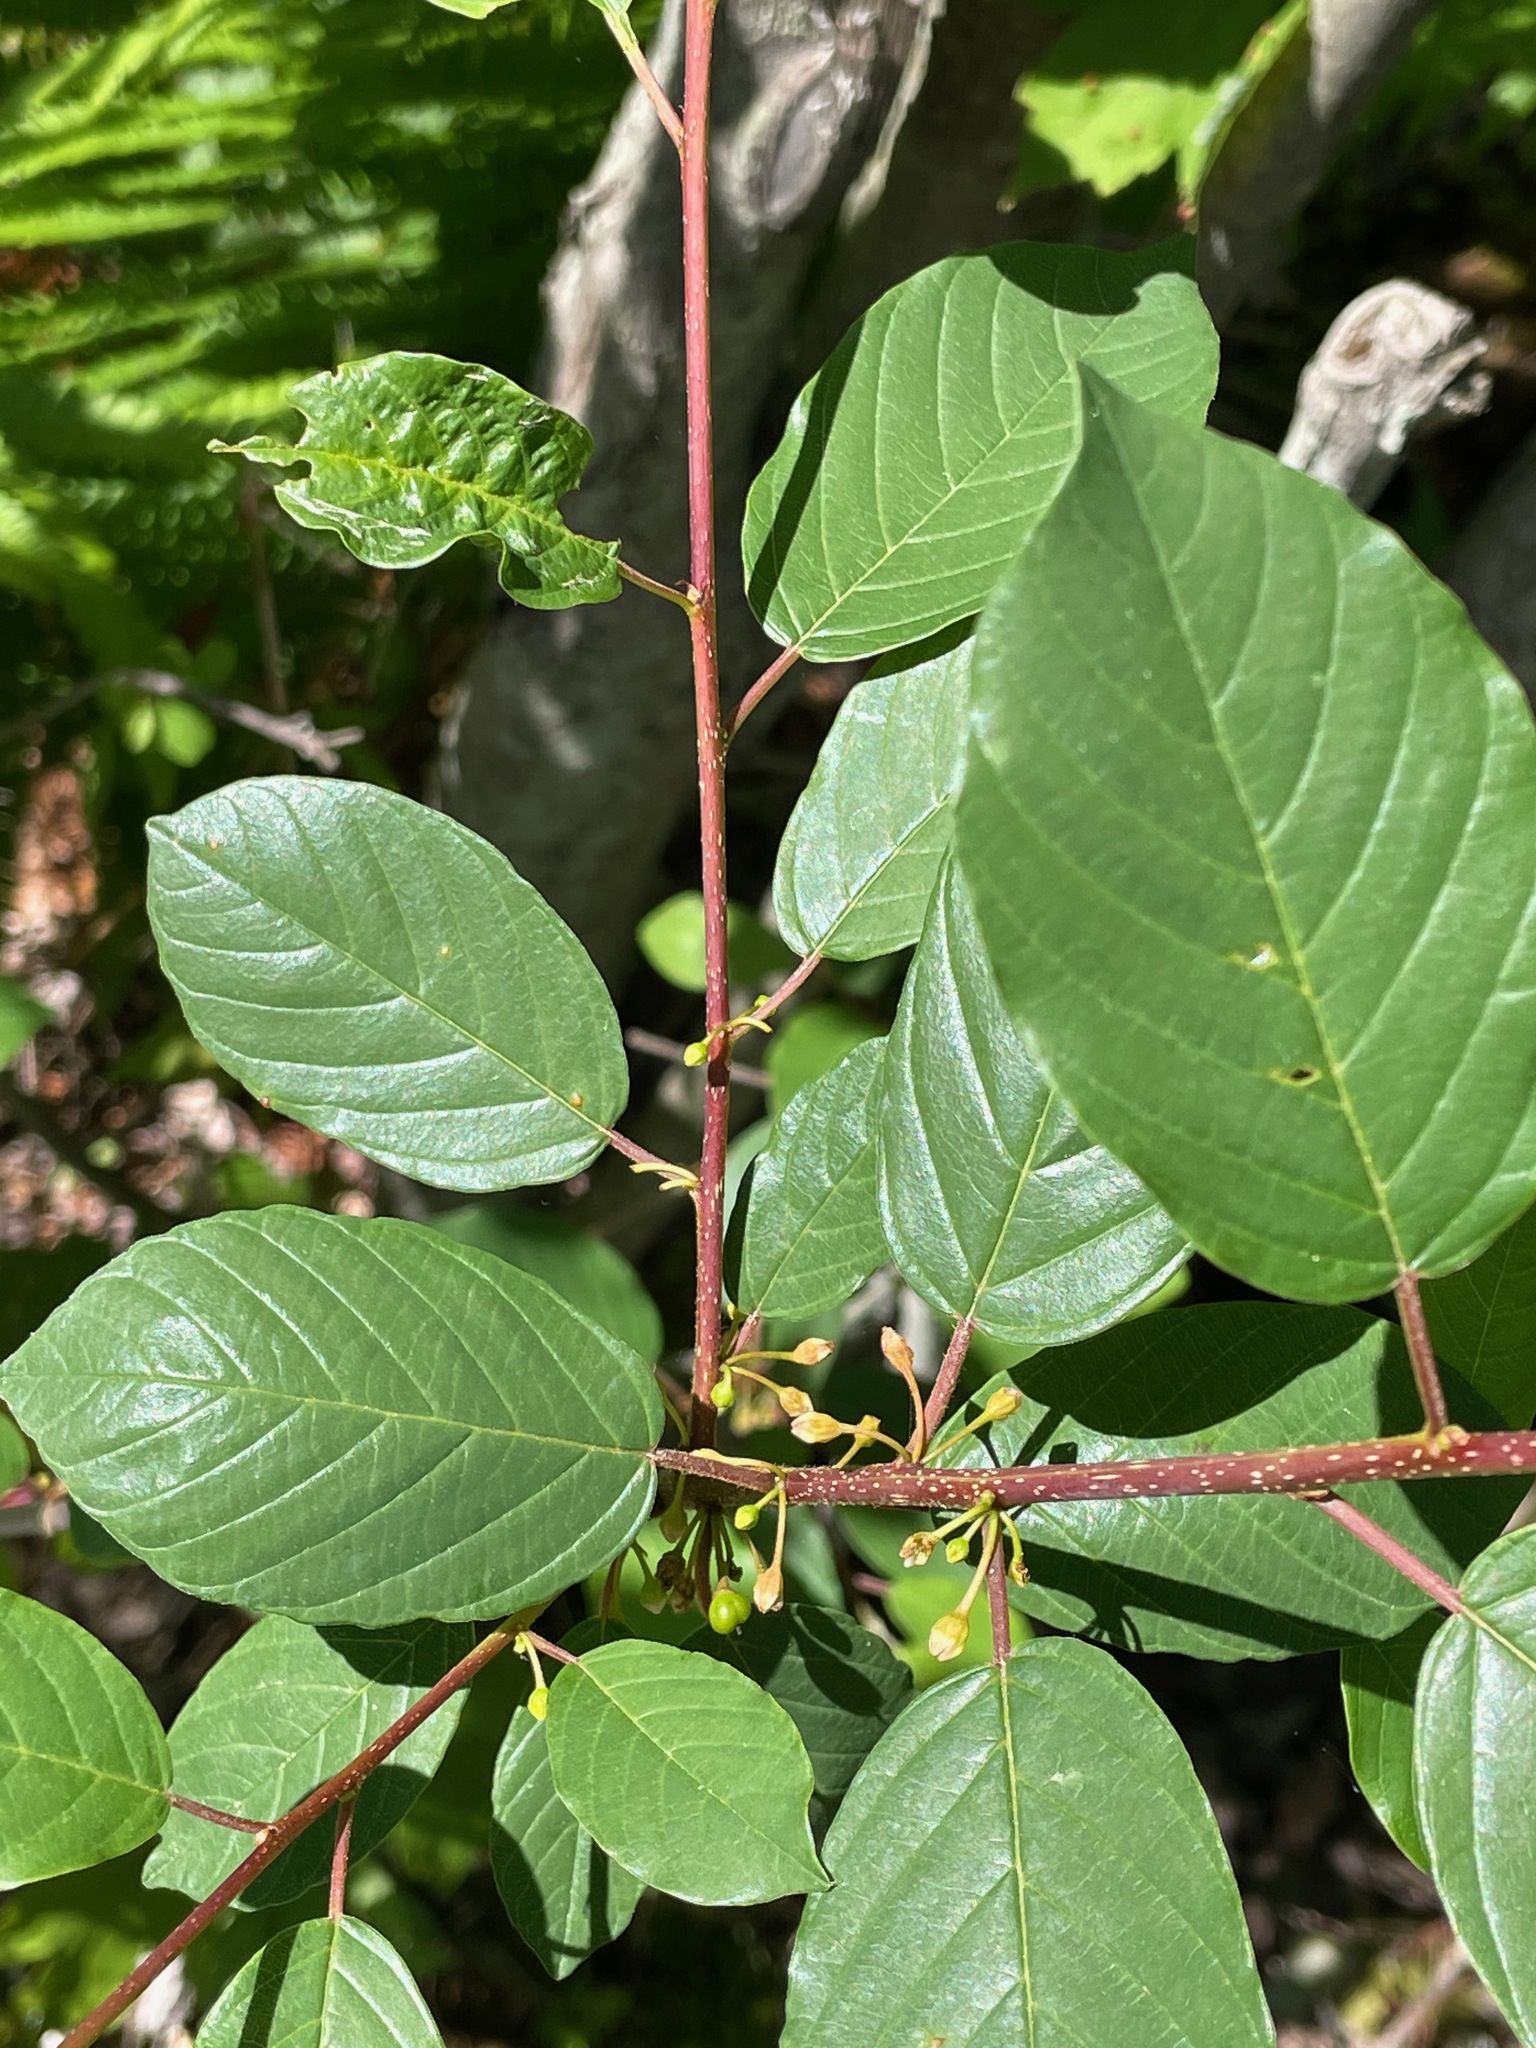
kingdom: Plantae
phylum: Tracheophyta
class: Magnoliopsida
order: Rosales
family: Rhamnaceae
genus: Frangula
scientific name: Frangula alnus
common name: Alder buckthorn
